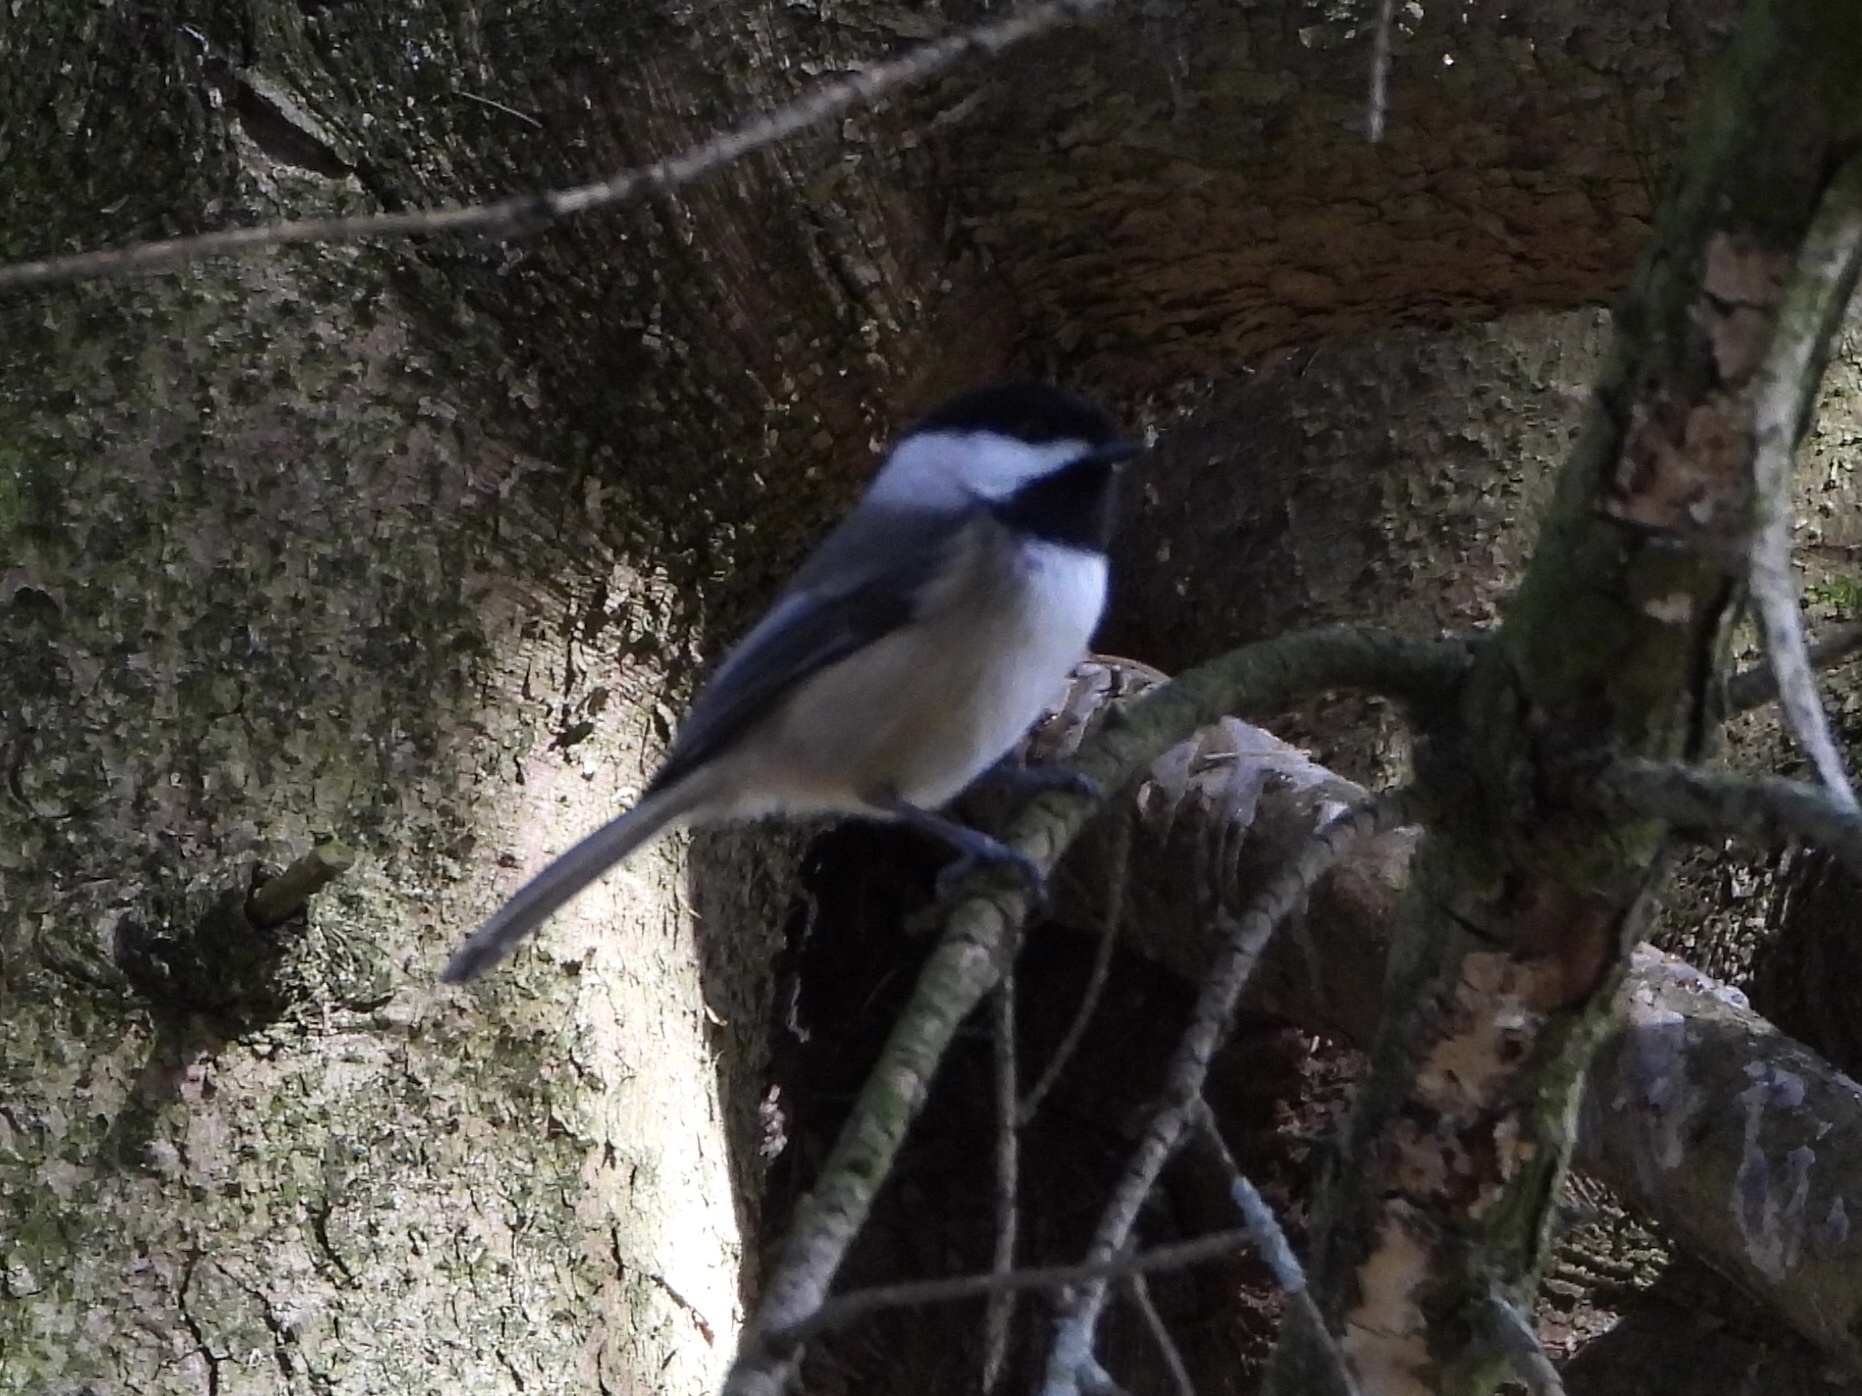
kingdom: Animalia
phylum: Chordata
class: Aves
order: Passeriformes
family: Paridae
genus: Poecile
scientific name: Poecile atricapillus
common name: Black-capped chickadee
